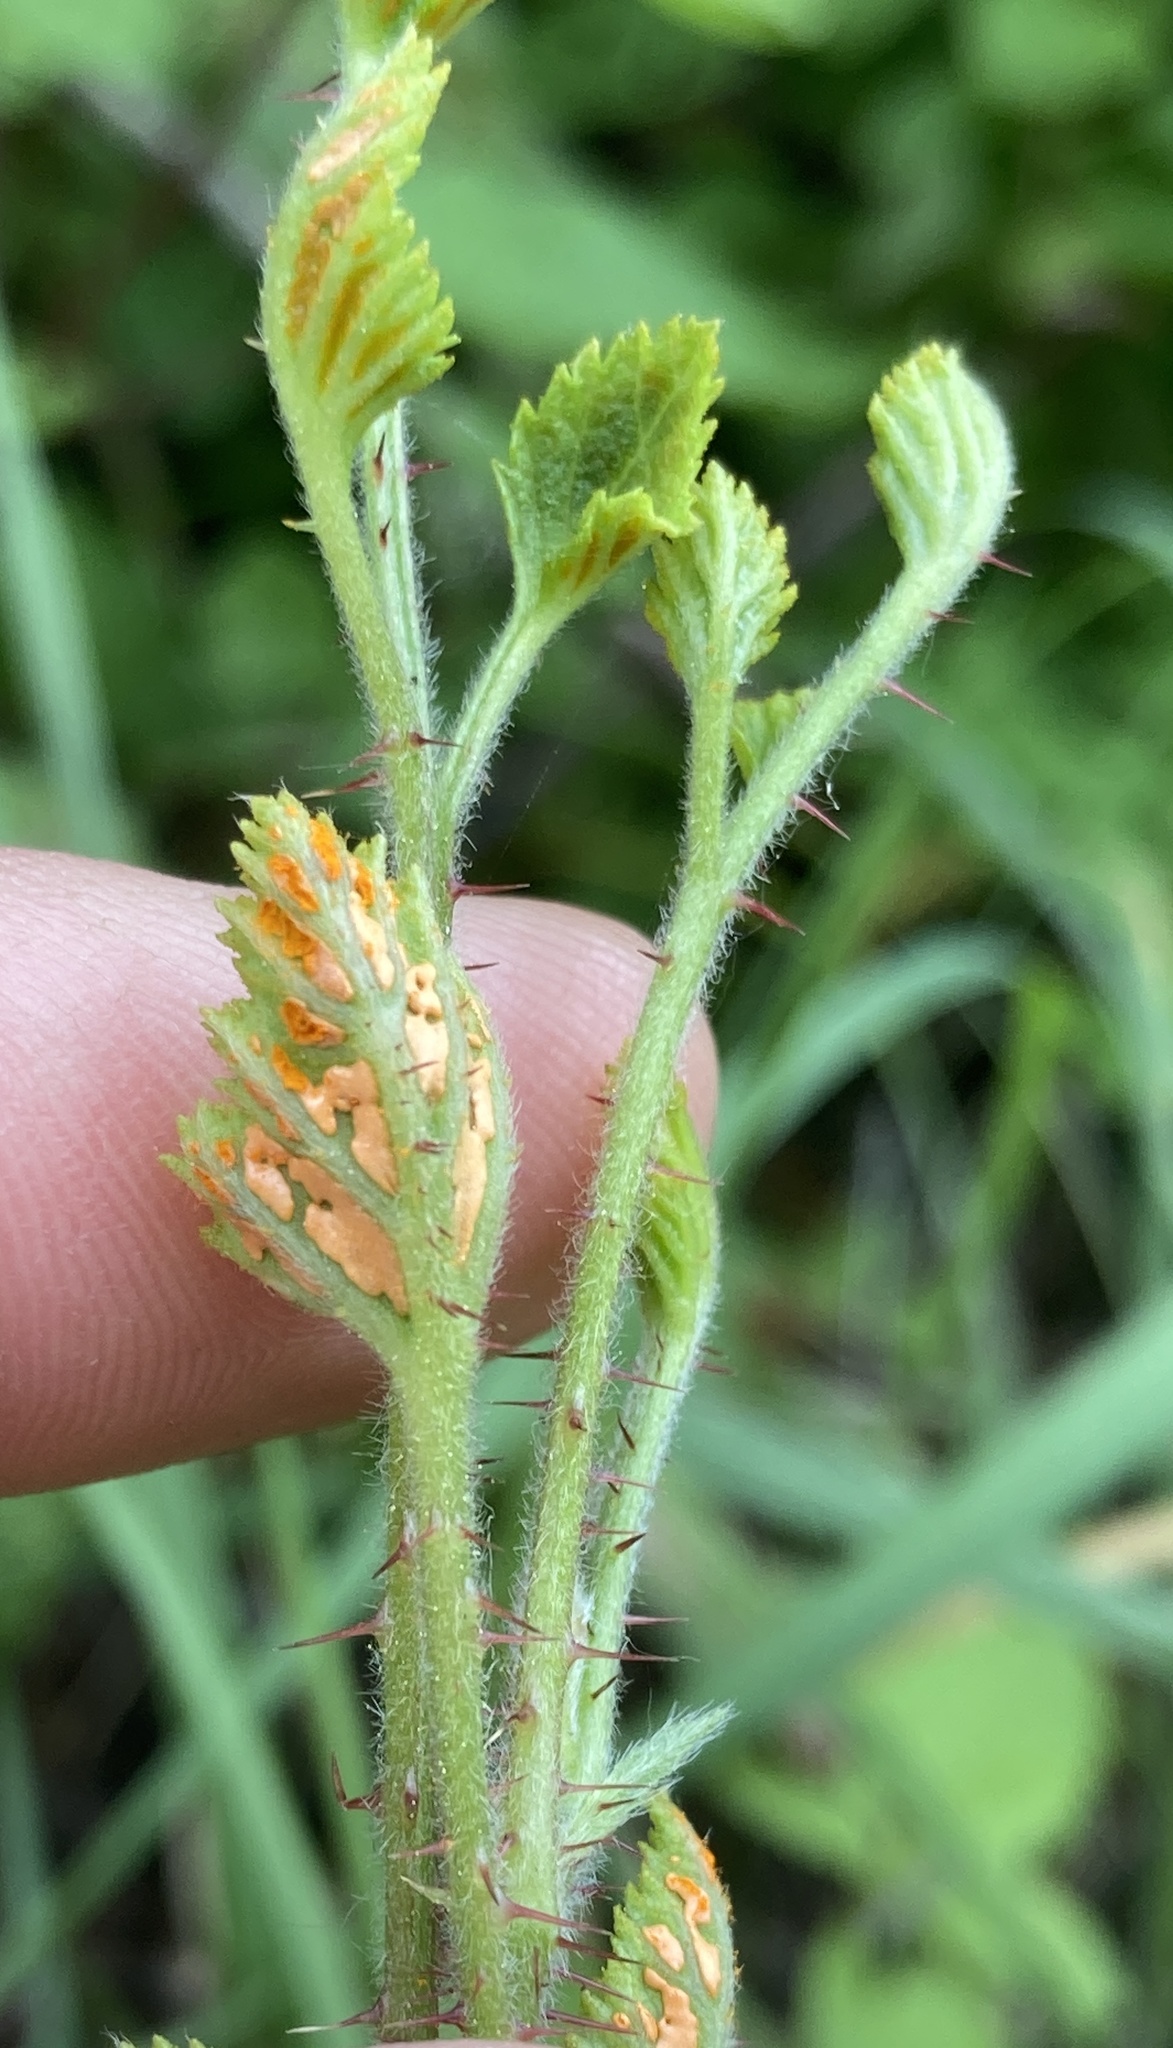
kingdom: Fungi
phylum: Basidiomycota
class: Pucciniomycetes
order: Pucciniales
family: Phragmidiaceae
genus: Arthuriomyces
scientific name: Arthuriomyces peckianus
